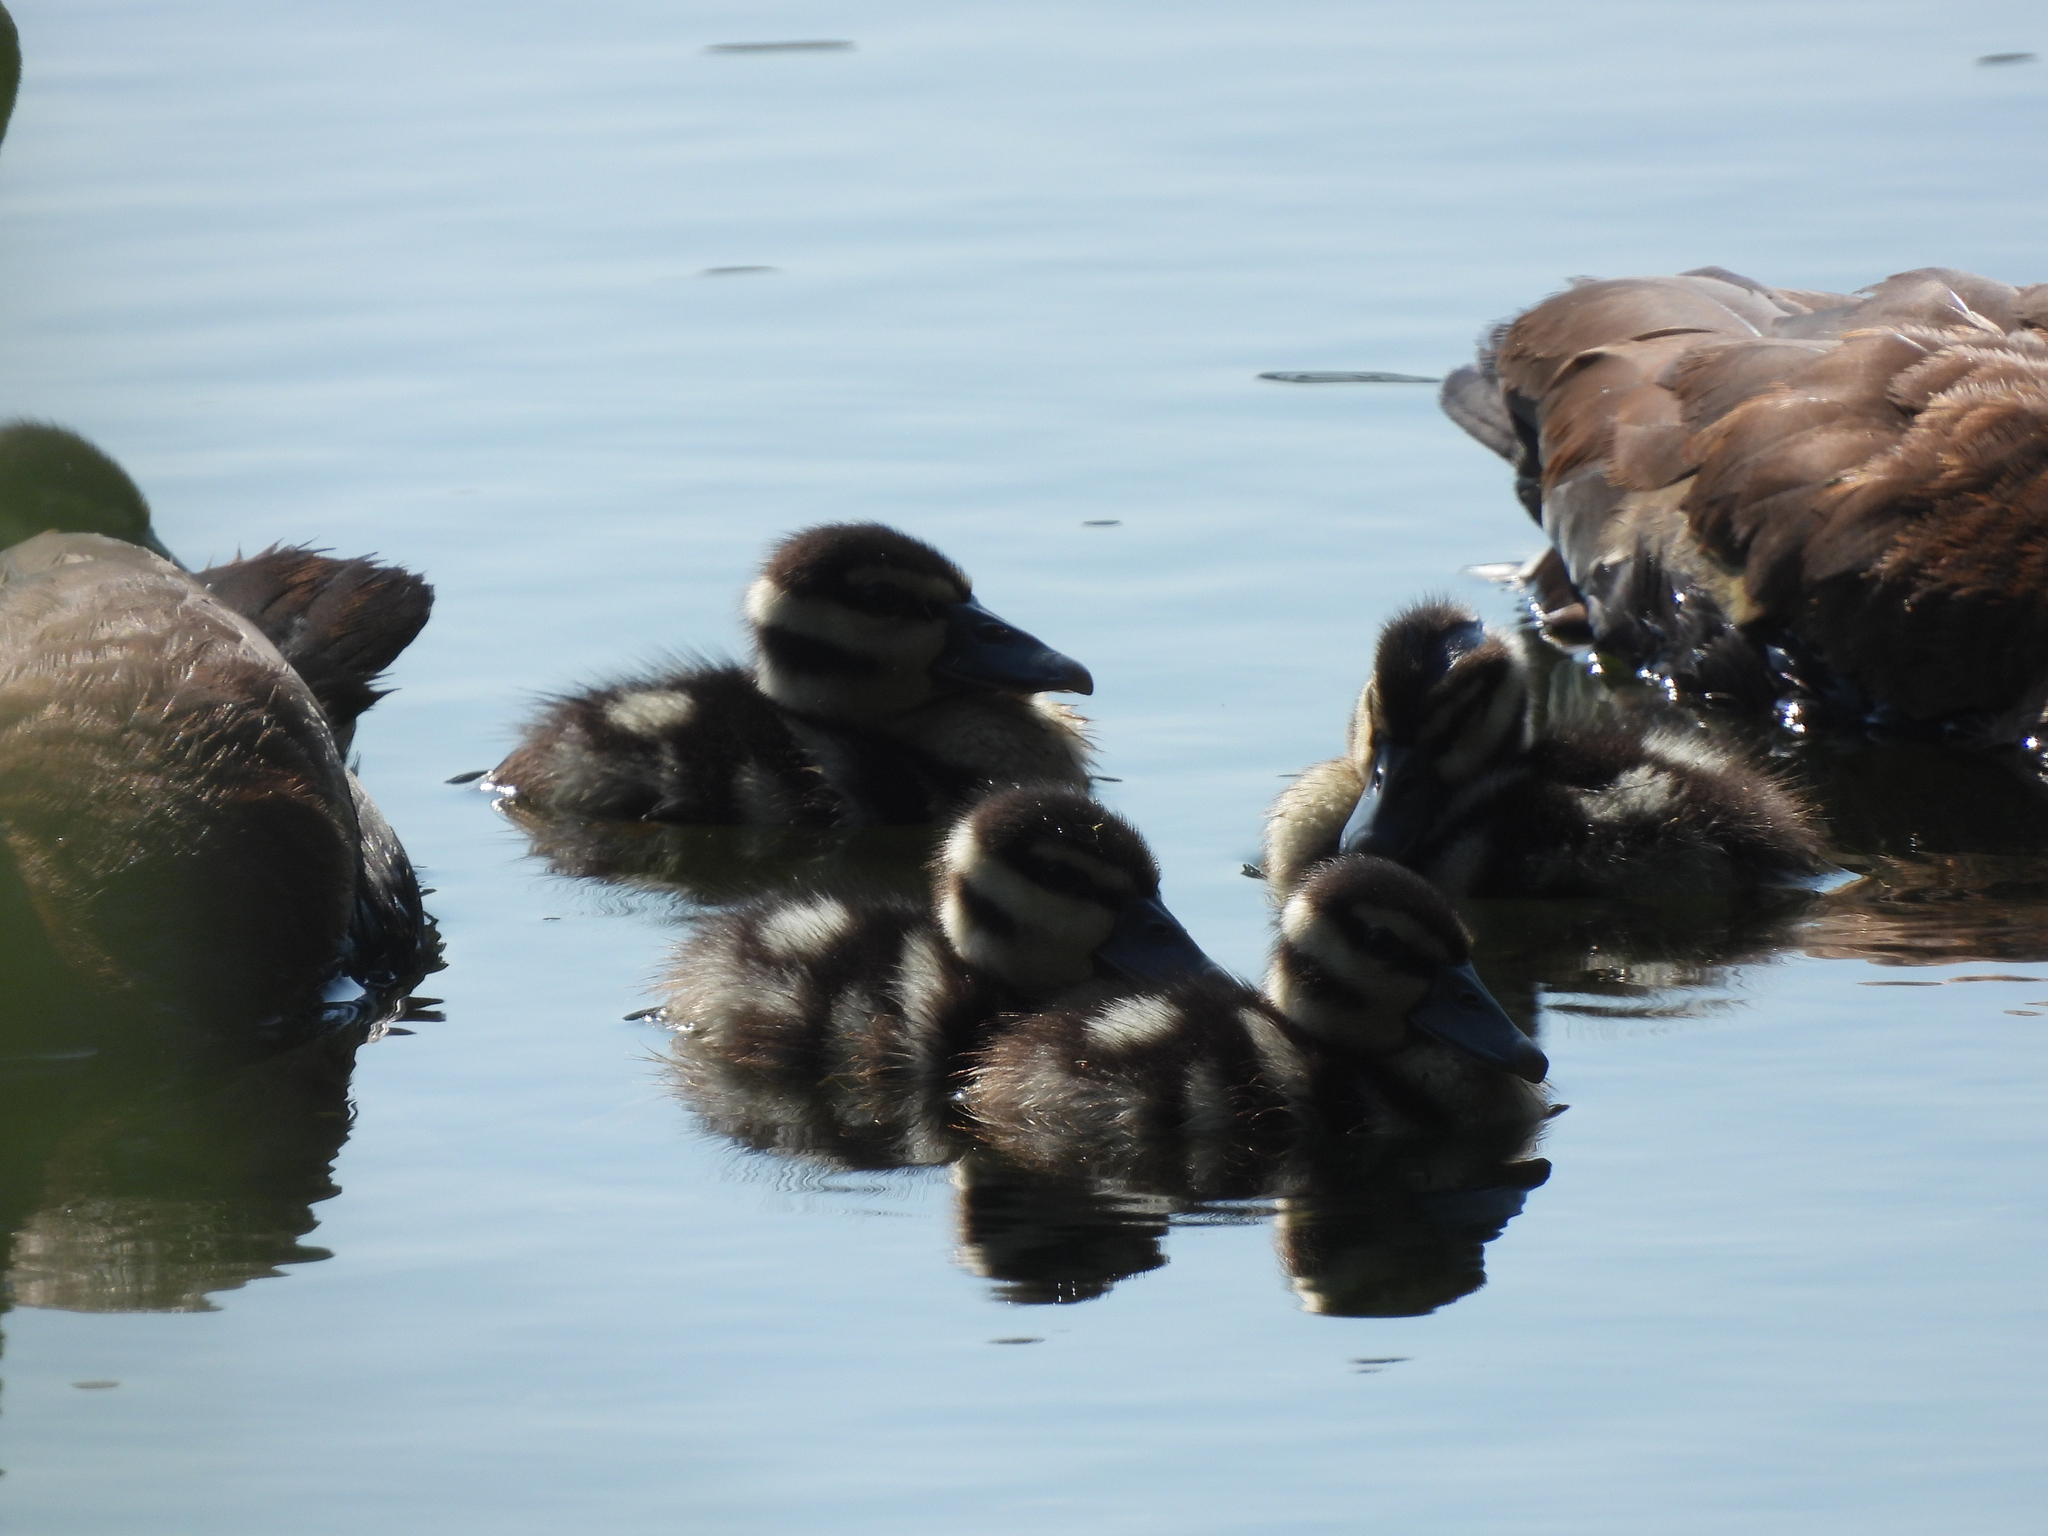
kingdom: Animalia
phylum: Chordata
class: Aves
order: Anseriformes
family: Anatidae
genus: Dendrocygna
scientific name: Dendrocygna autumnalis
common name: Black-bellied whistling duck
